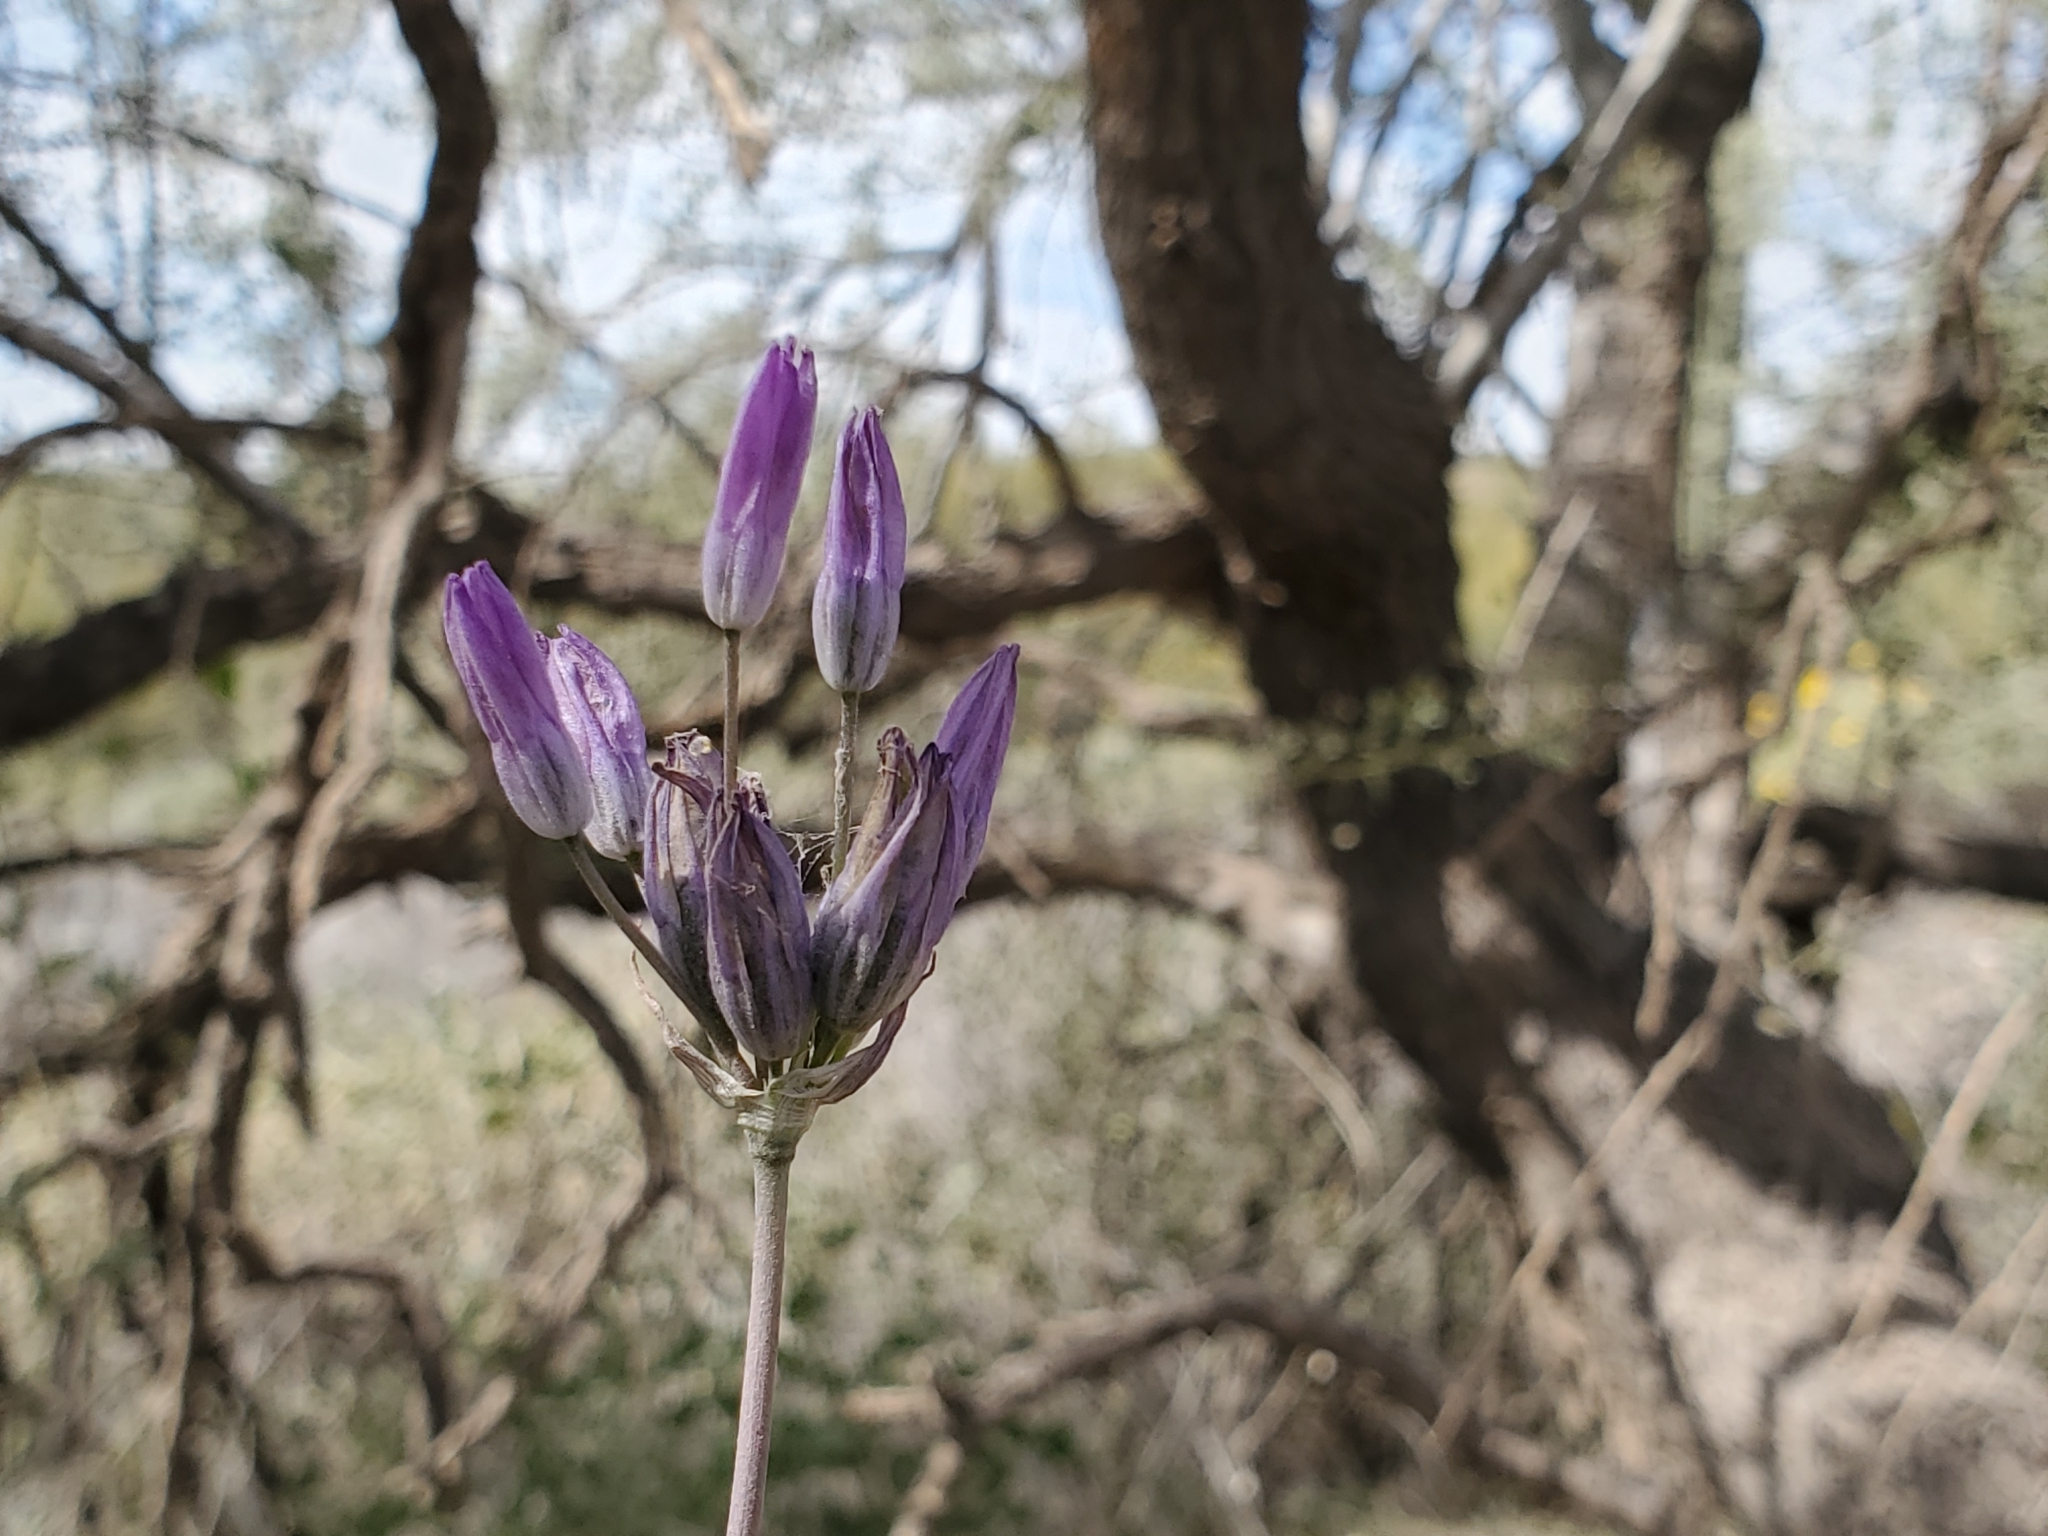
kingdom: Plantae
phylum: Tracheophyta
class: Liliopsida
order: Asparagales
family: Asparagaceae
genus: Dipterostemon
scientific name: Dipterostemon capitatus
